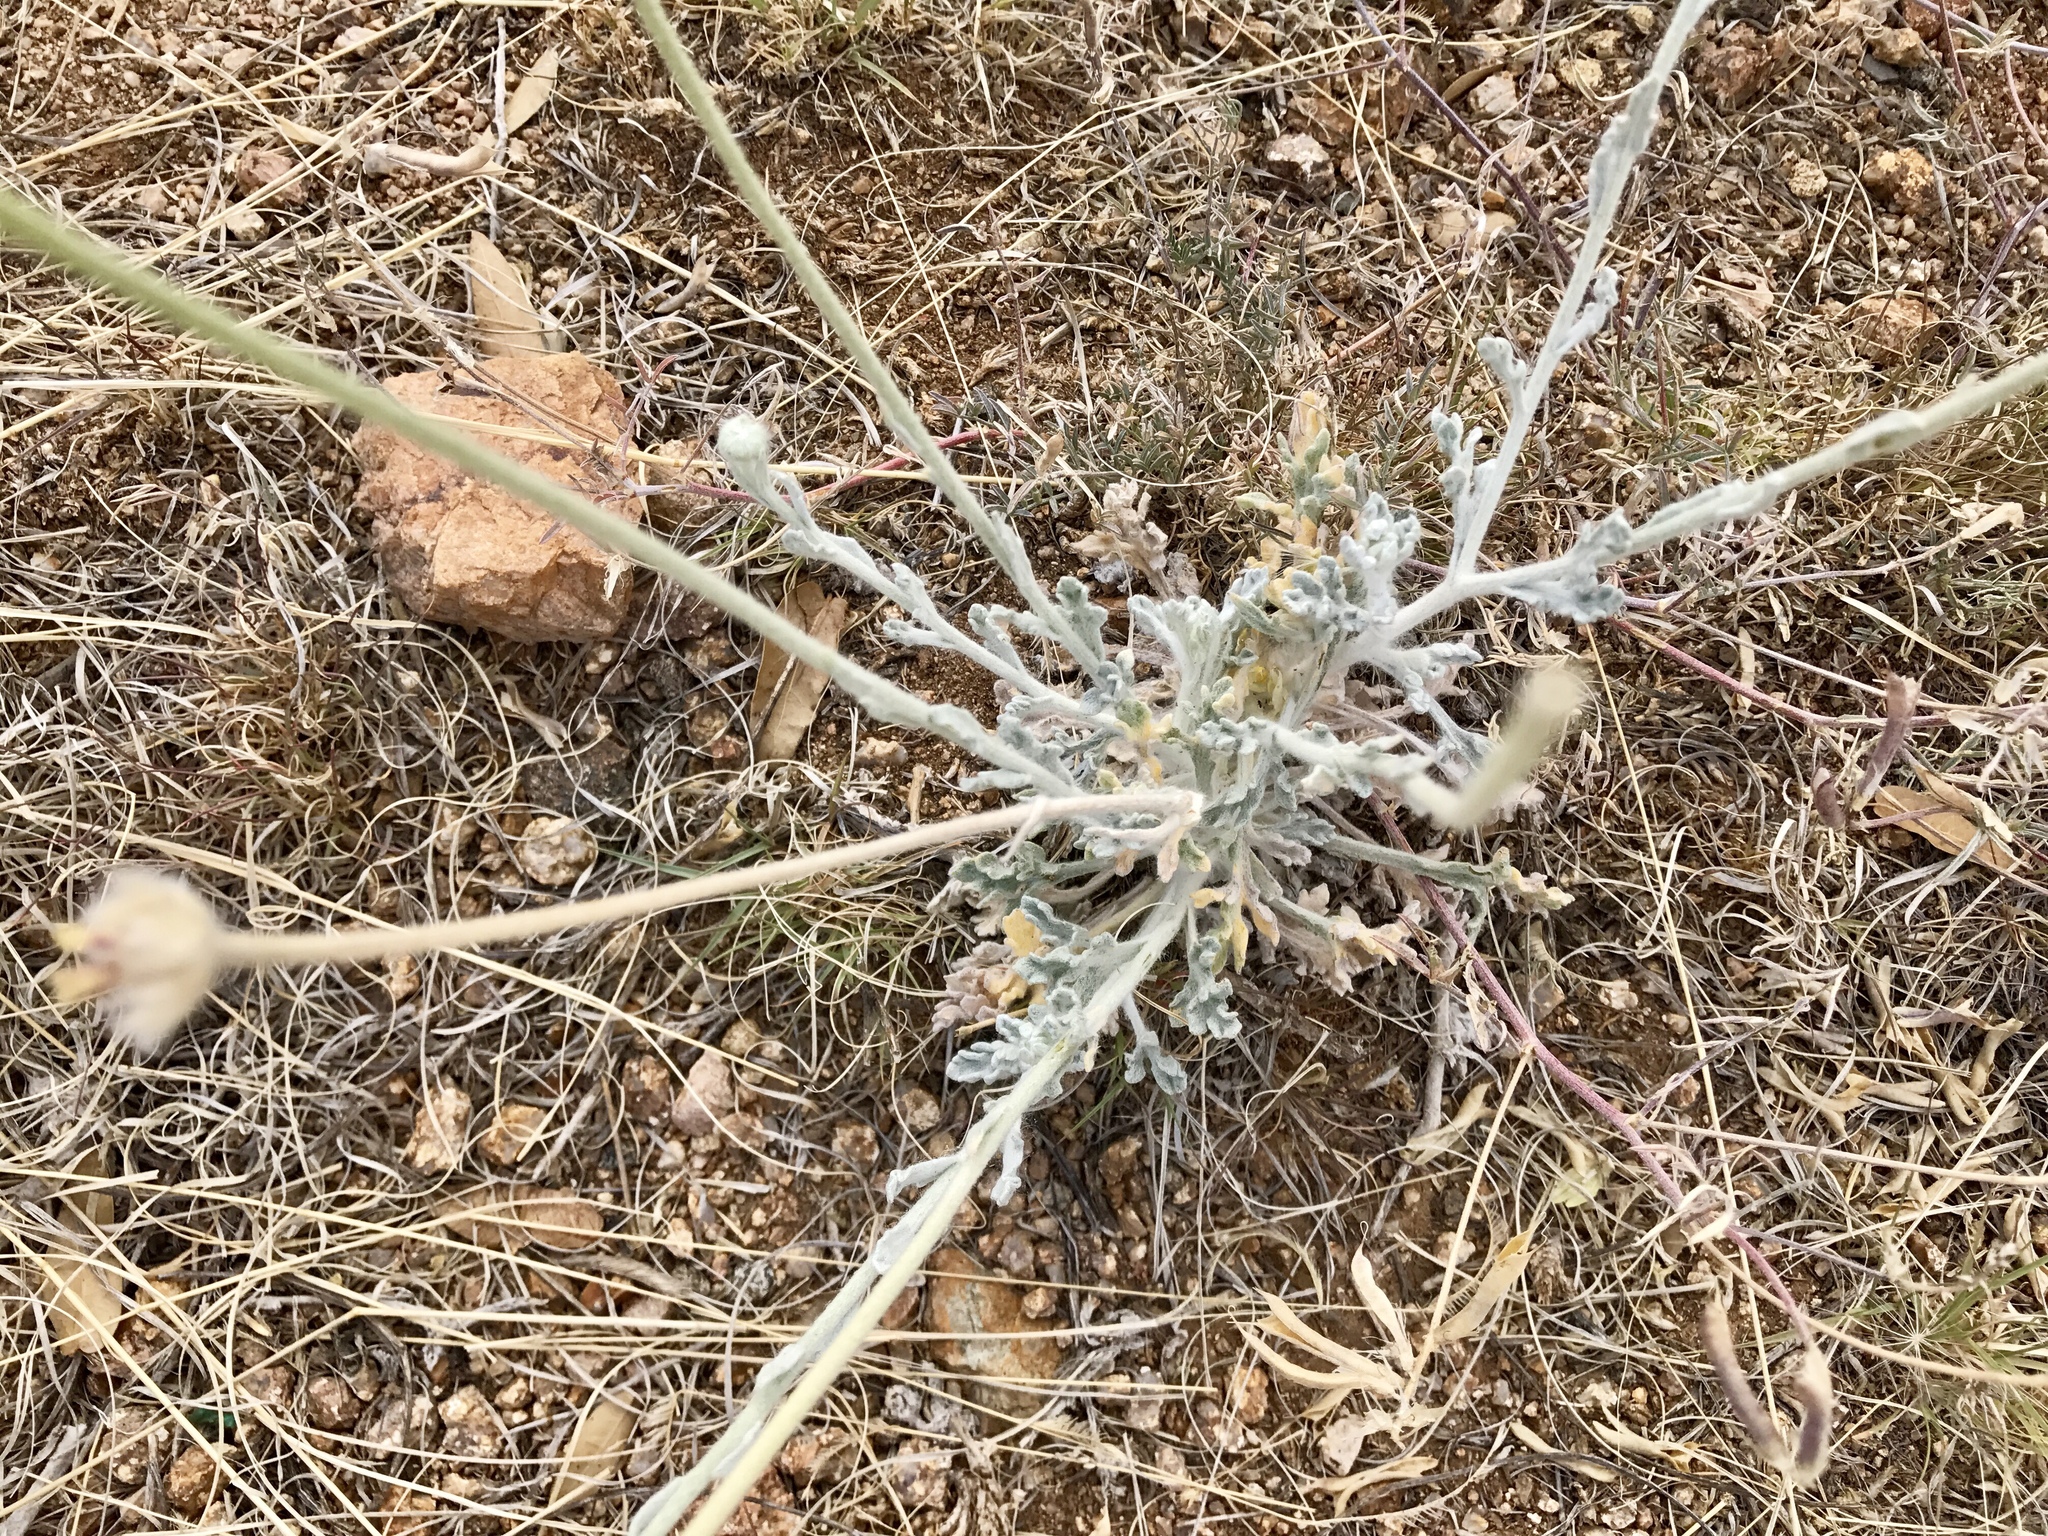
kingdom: Plantae
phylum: Tracheophyta
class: Magnoliopsida
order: Asterales
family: Asteraceae
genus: Baileya
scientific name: Baileya multiradiata
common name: Desert-marigold
